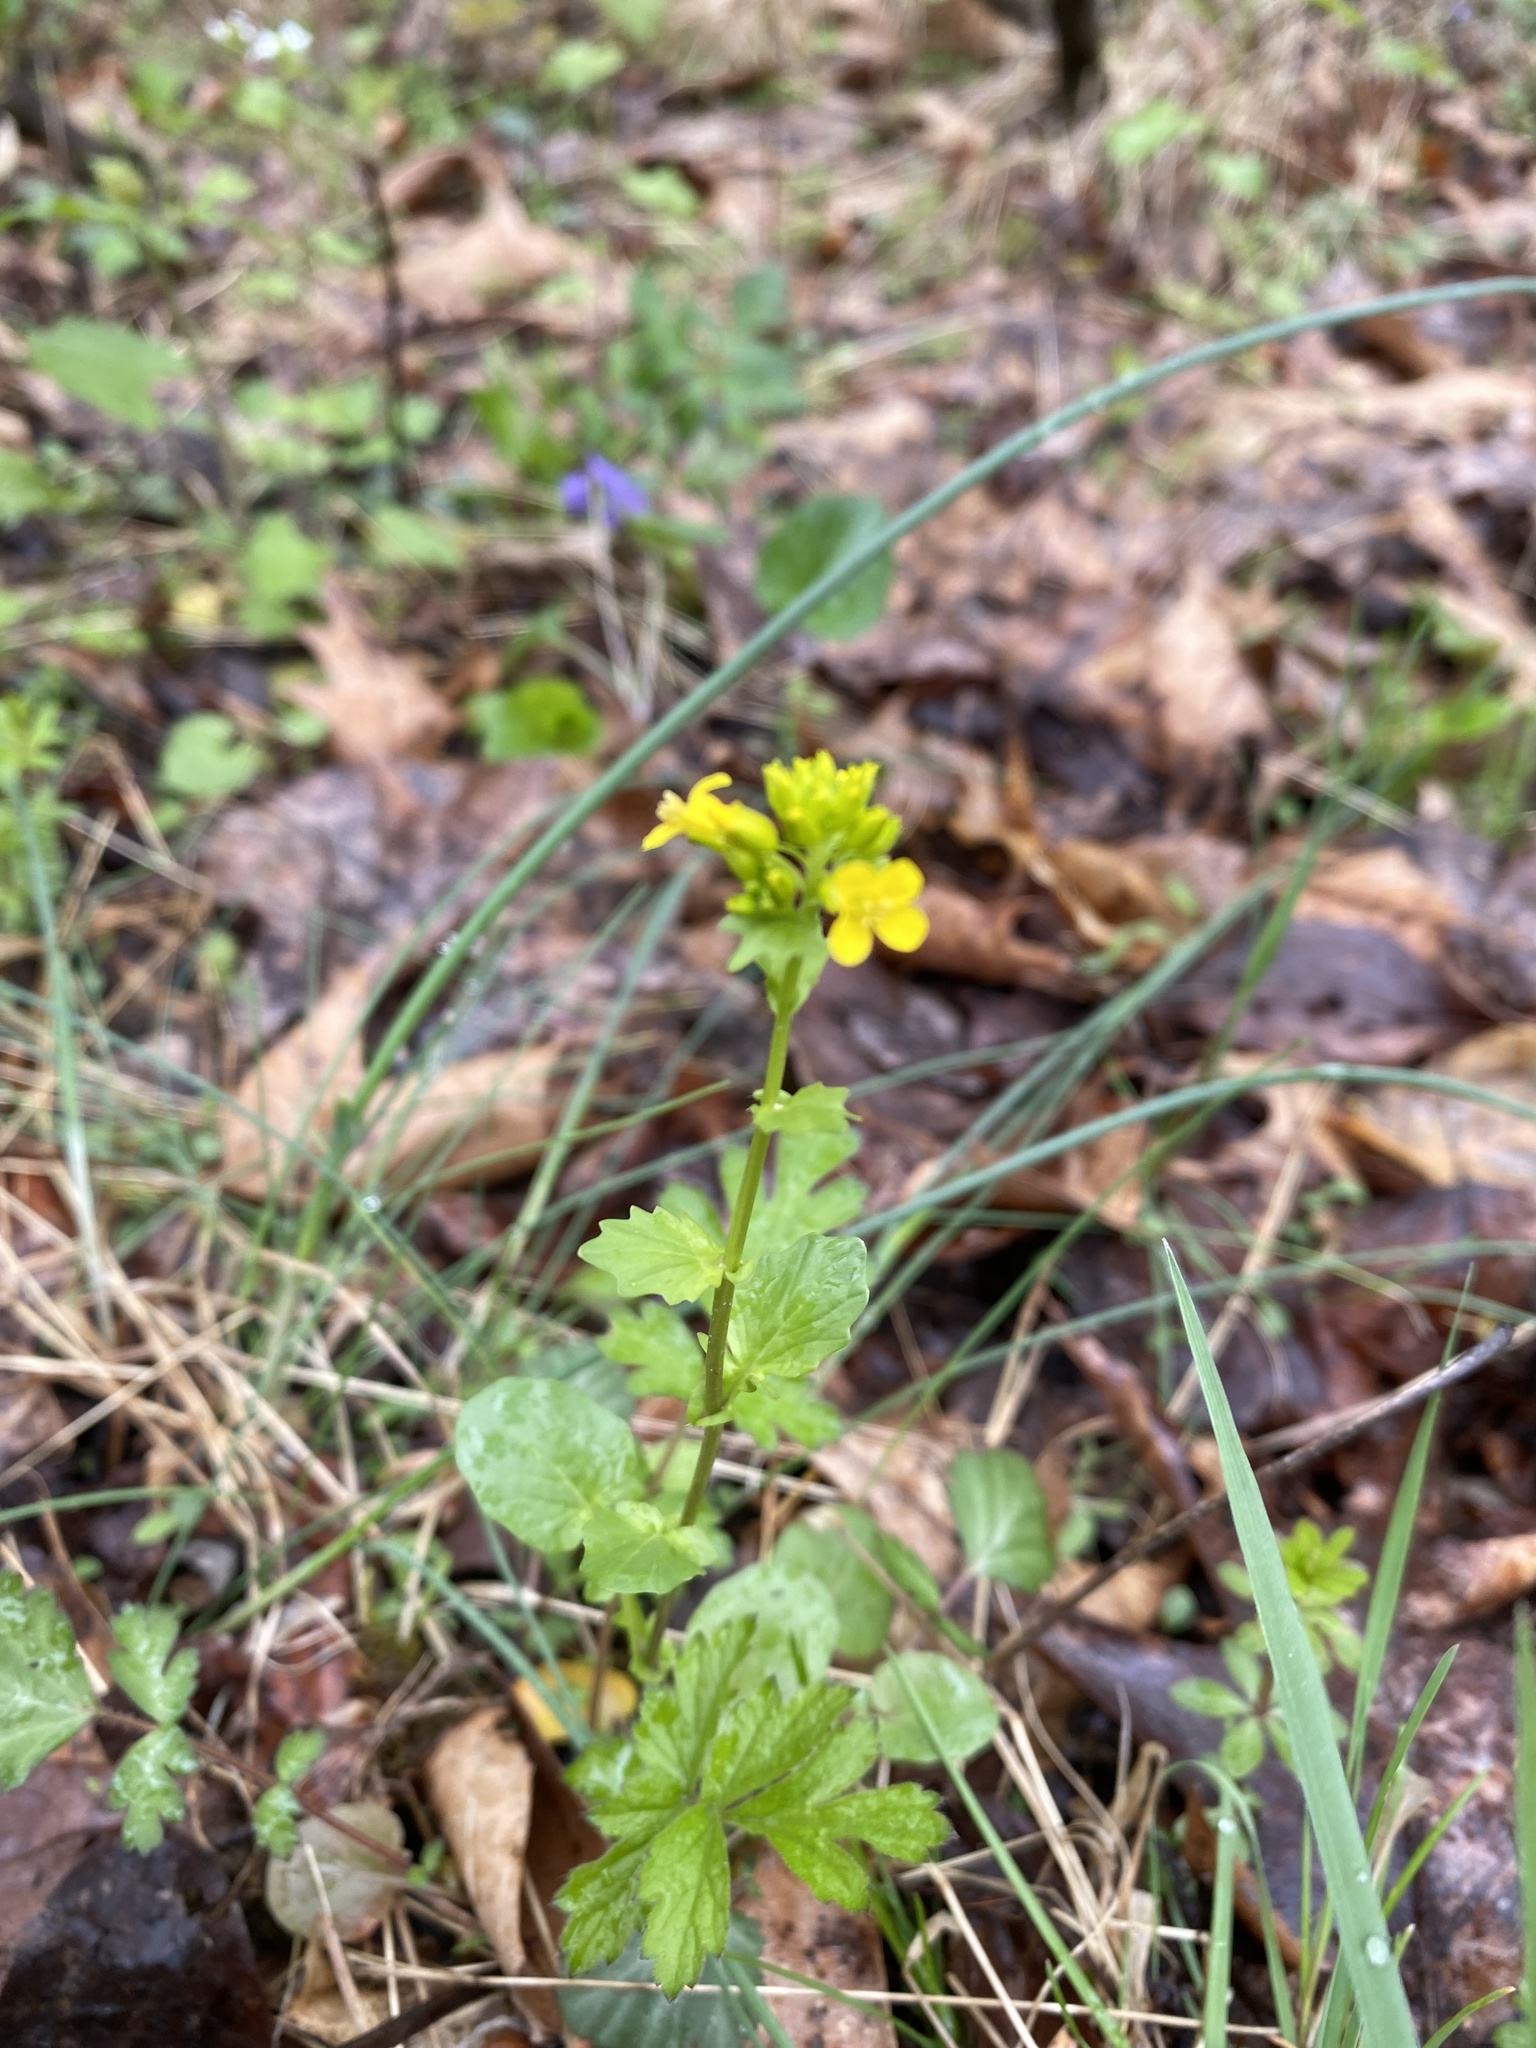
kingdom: Plantae
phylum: Tracheophyta
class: Magnoliopsida
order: Brassicales
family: Brassicaceae
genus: Barbarea
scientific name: Barbarea vulgaris
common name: Cressy-greens
